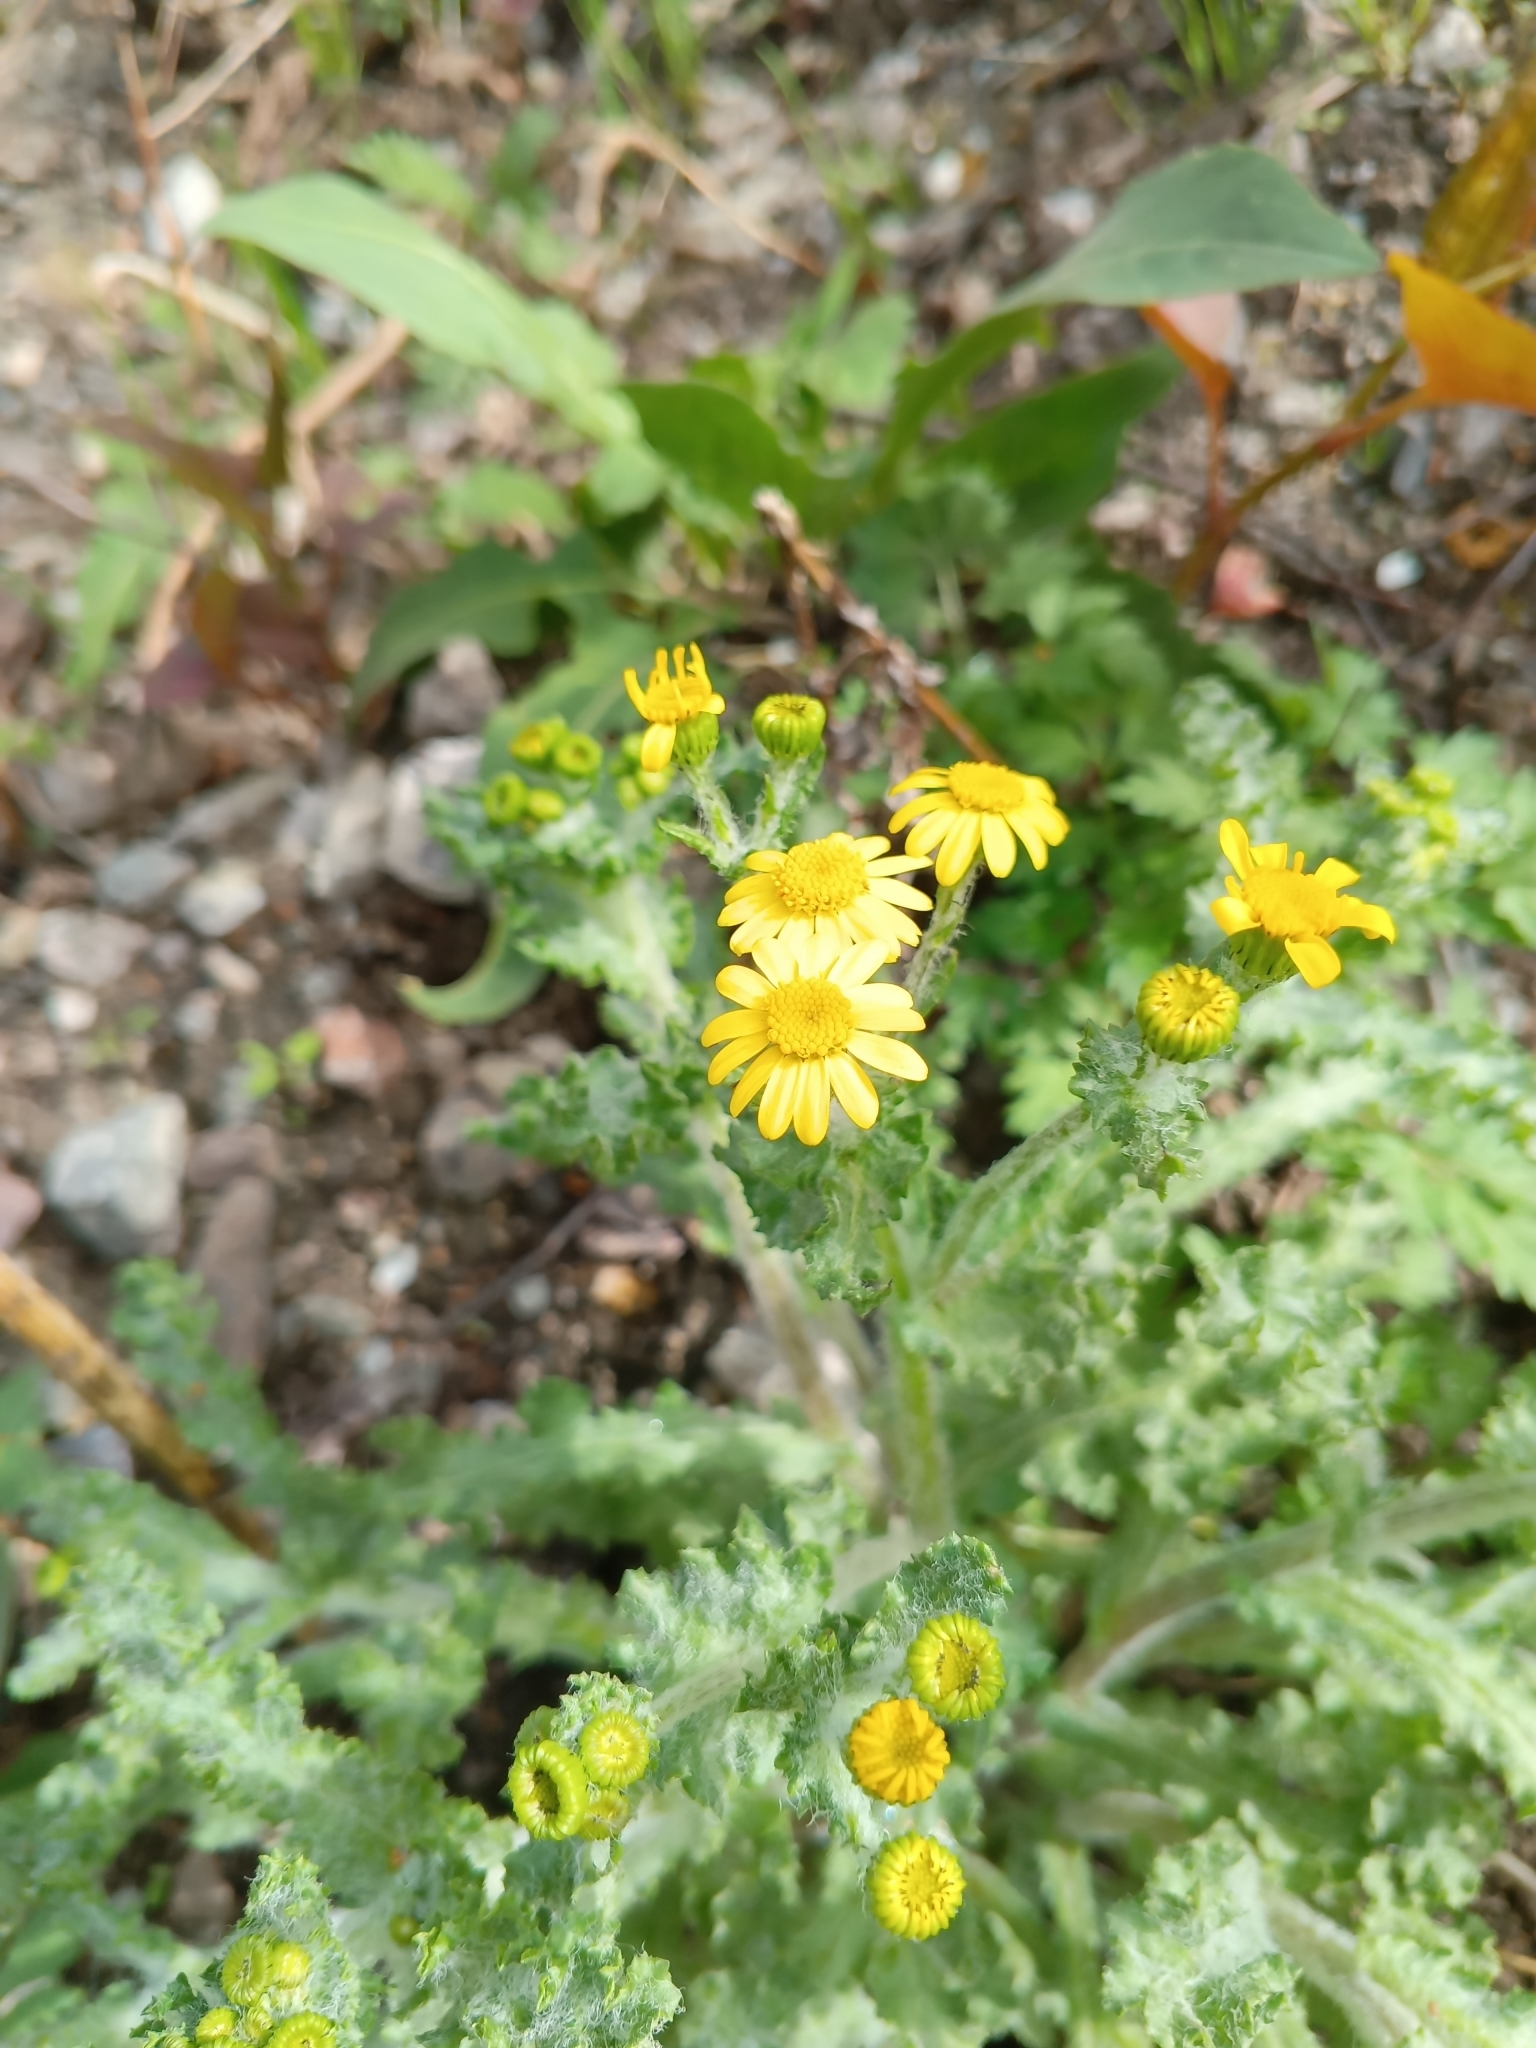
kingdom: Plantae
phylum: Tracheophyta
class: Magnoliopsida
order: Asterales
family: Asteraceae
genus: Senecio
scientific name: Senecio vernalis
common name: Eastern groundsel
